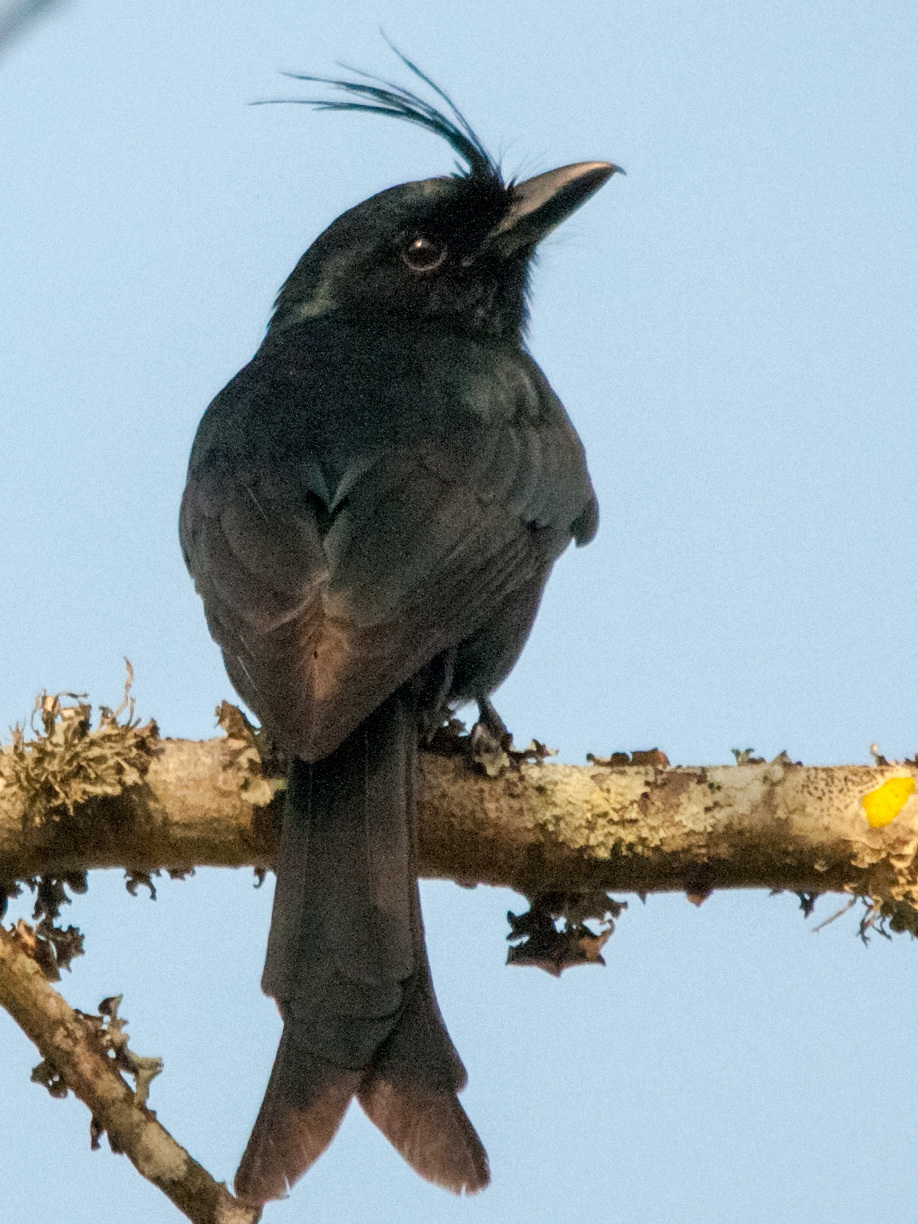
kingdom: Animalia
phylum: Chordata
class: Aves
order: Passeriformes
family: Dicruridae
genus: Dicrurus
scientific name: Dicrurus forficatus
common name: Crested drongo
